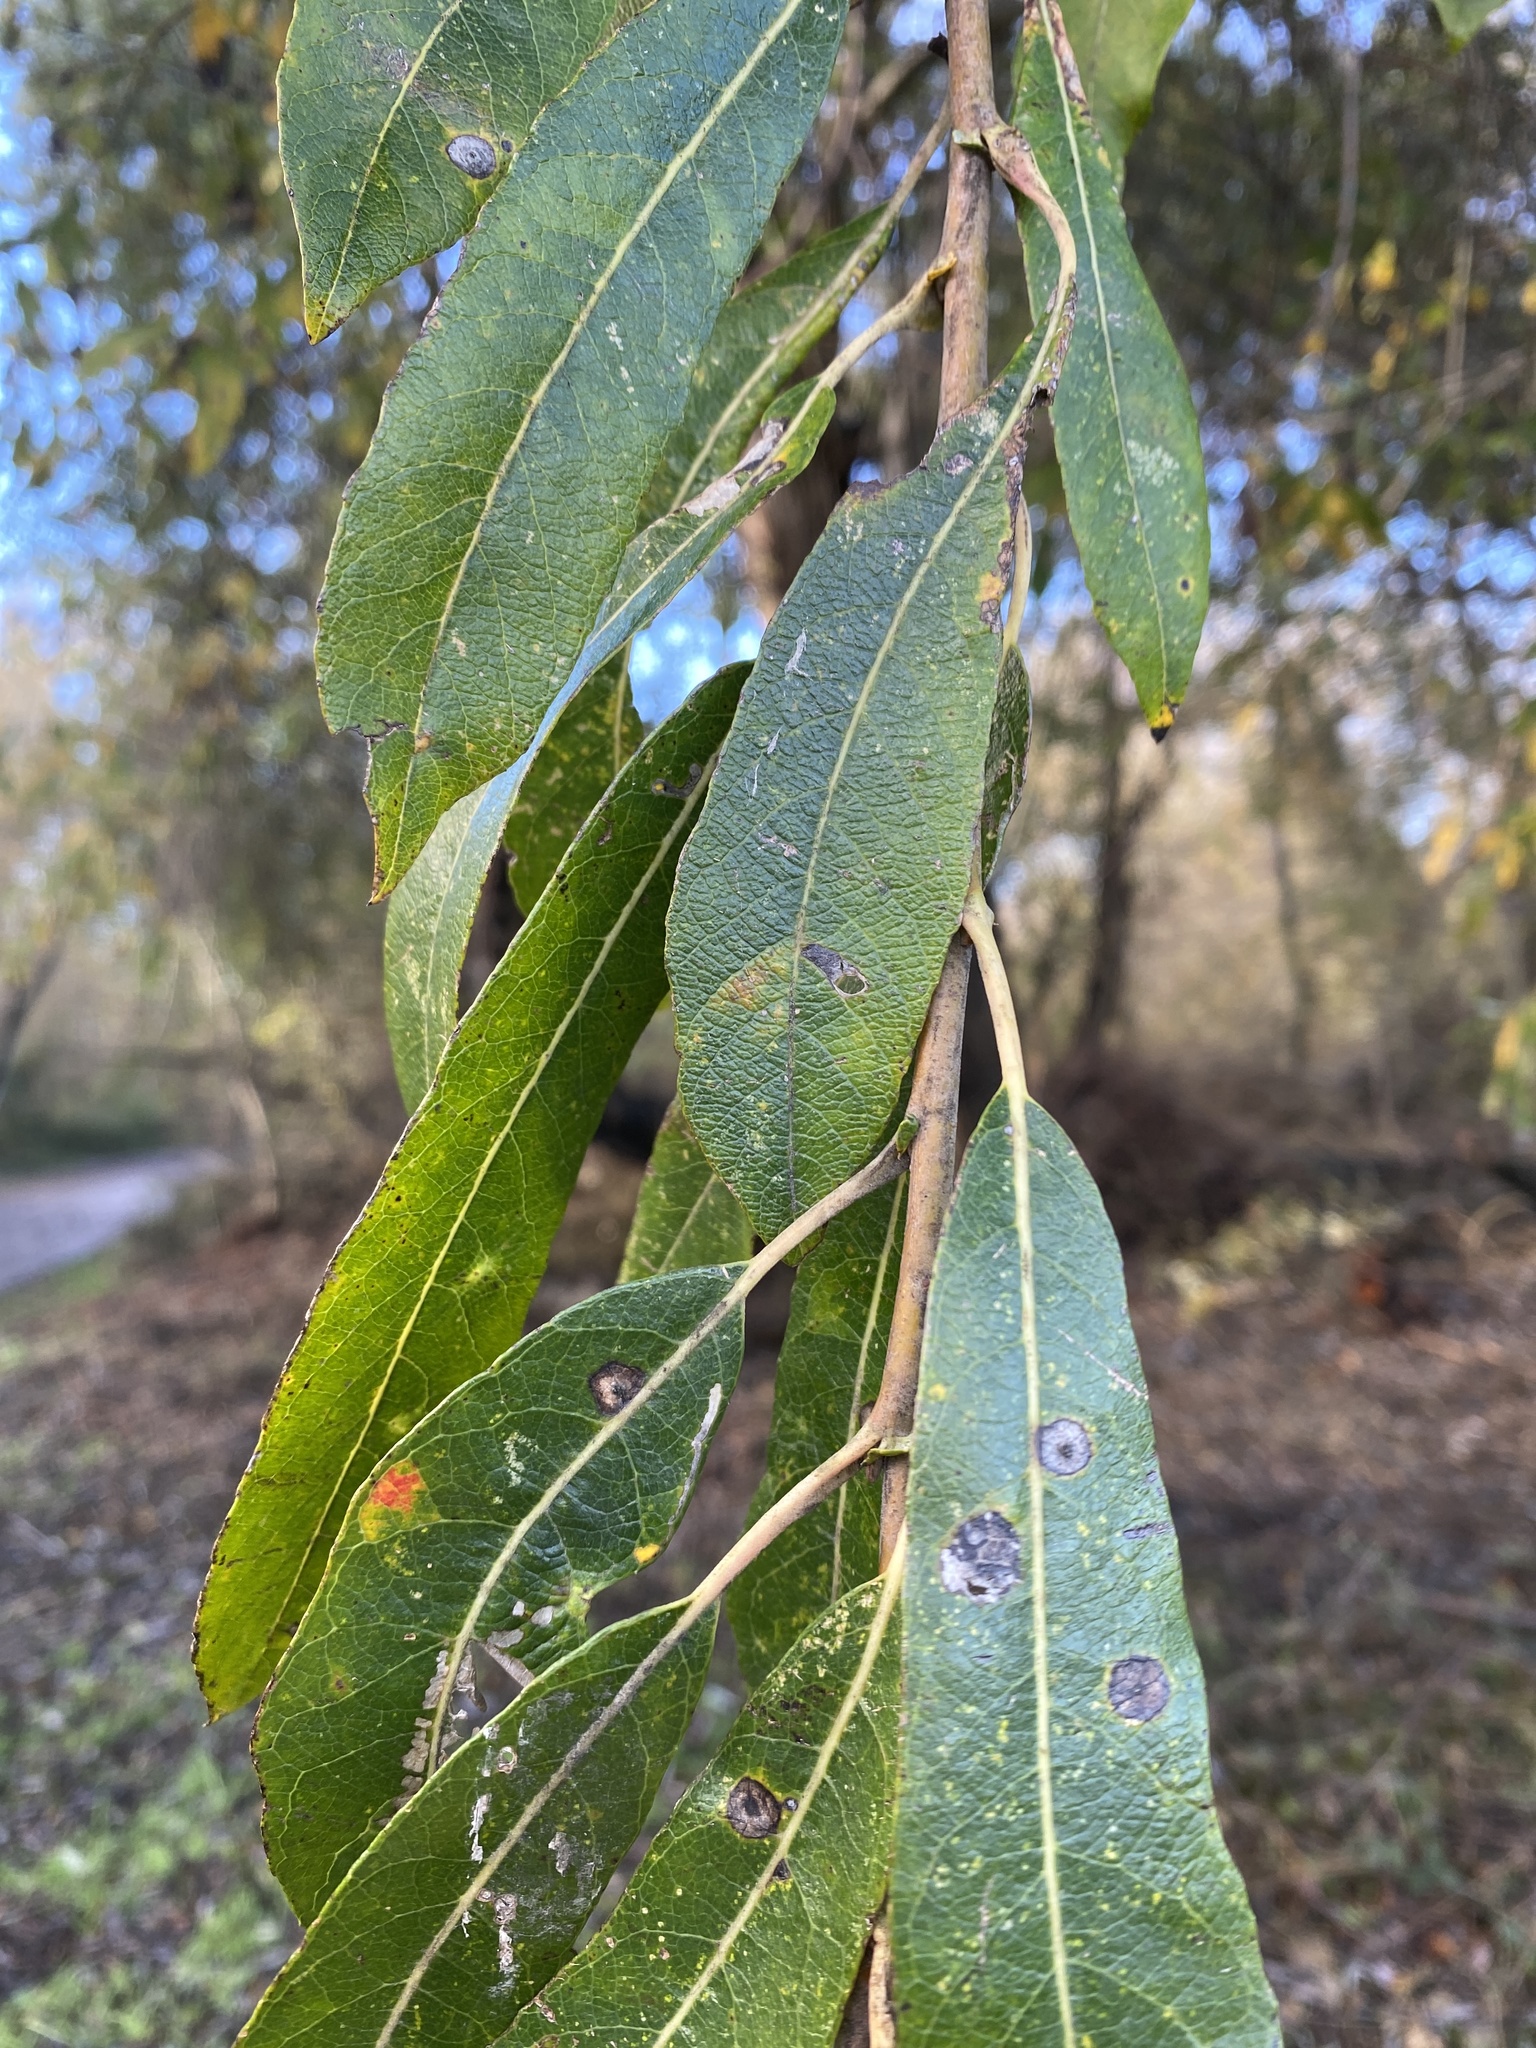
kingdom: Plantae
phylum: Tracheophyta
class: Magnoliopsida
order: Malpighiales
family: Salicaceae
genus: Salix
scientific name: Salix lasiolepis
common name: Arroyo willow
